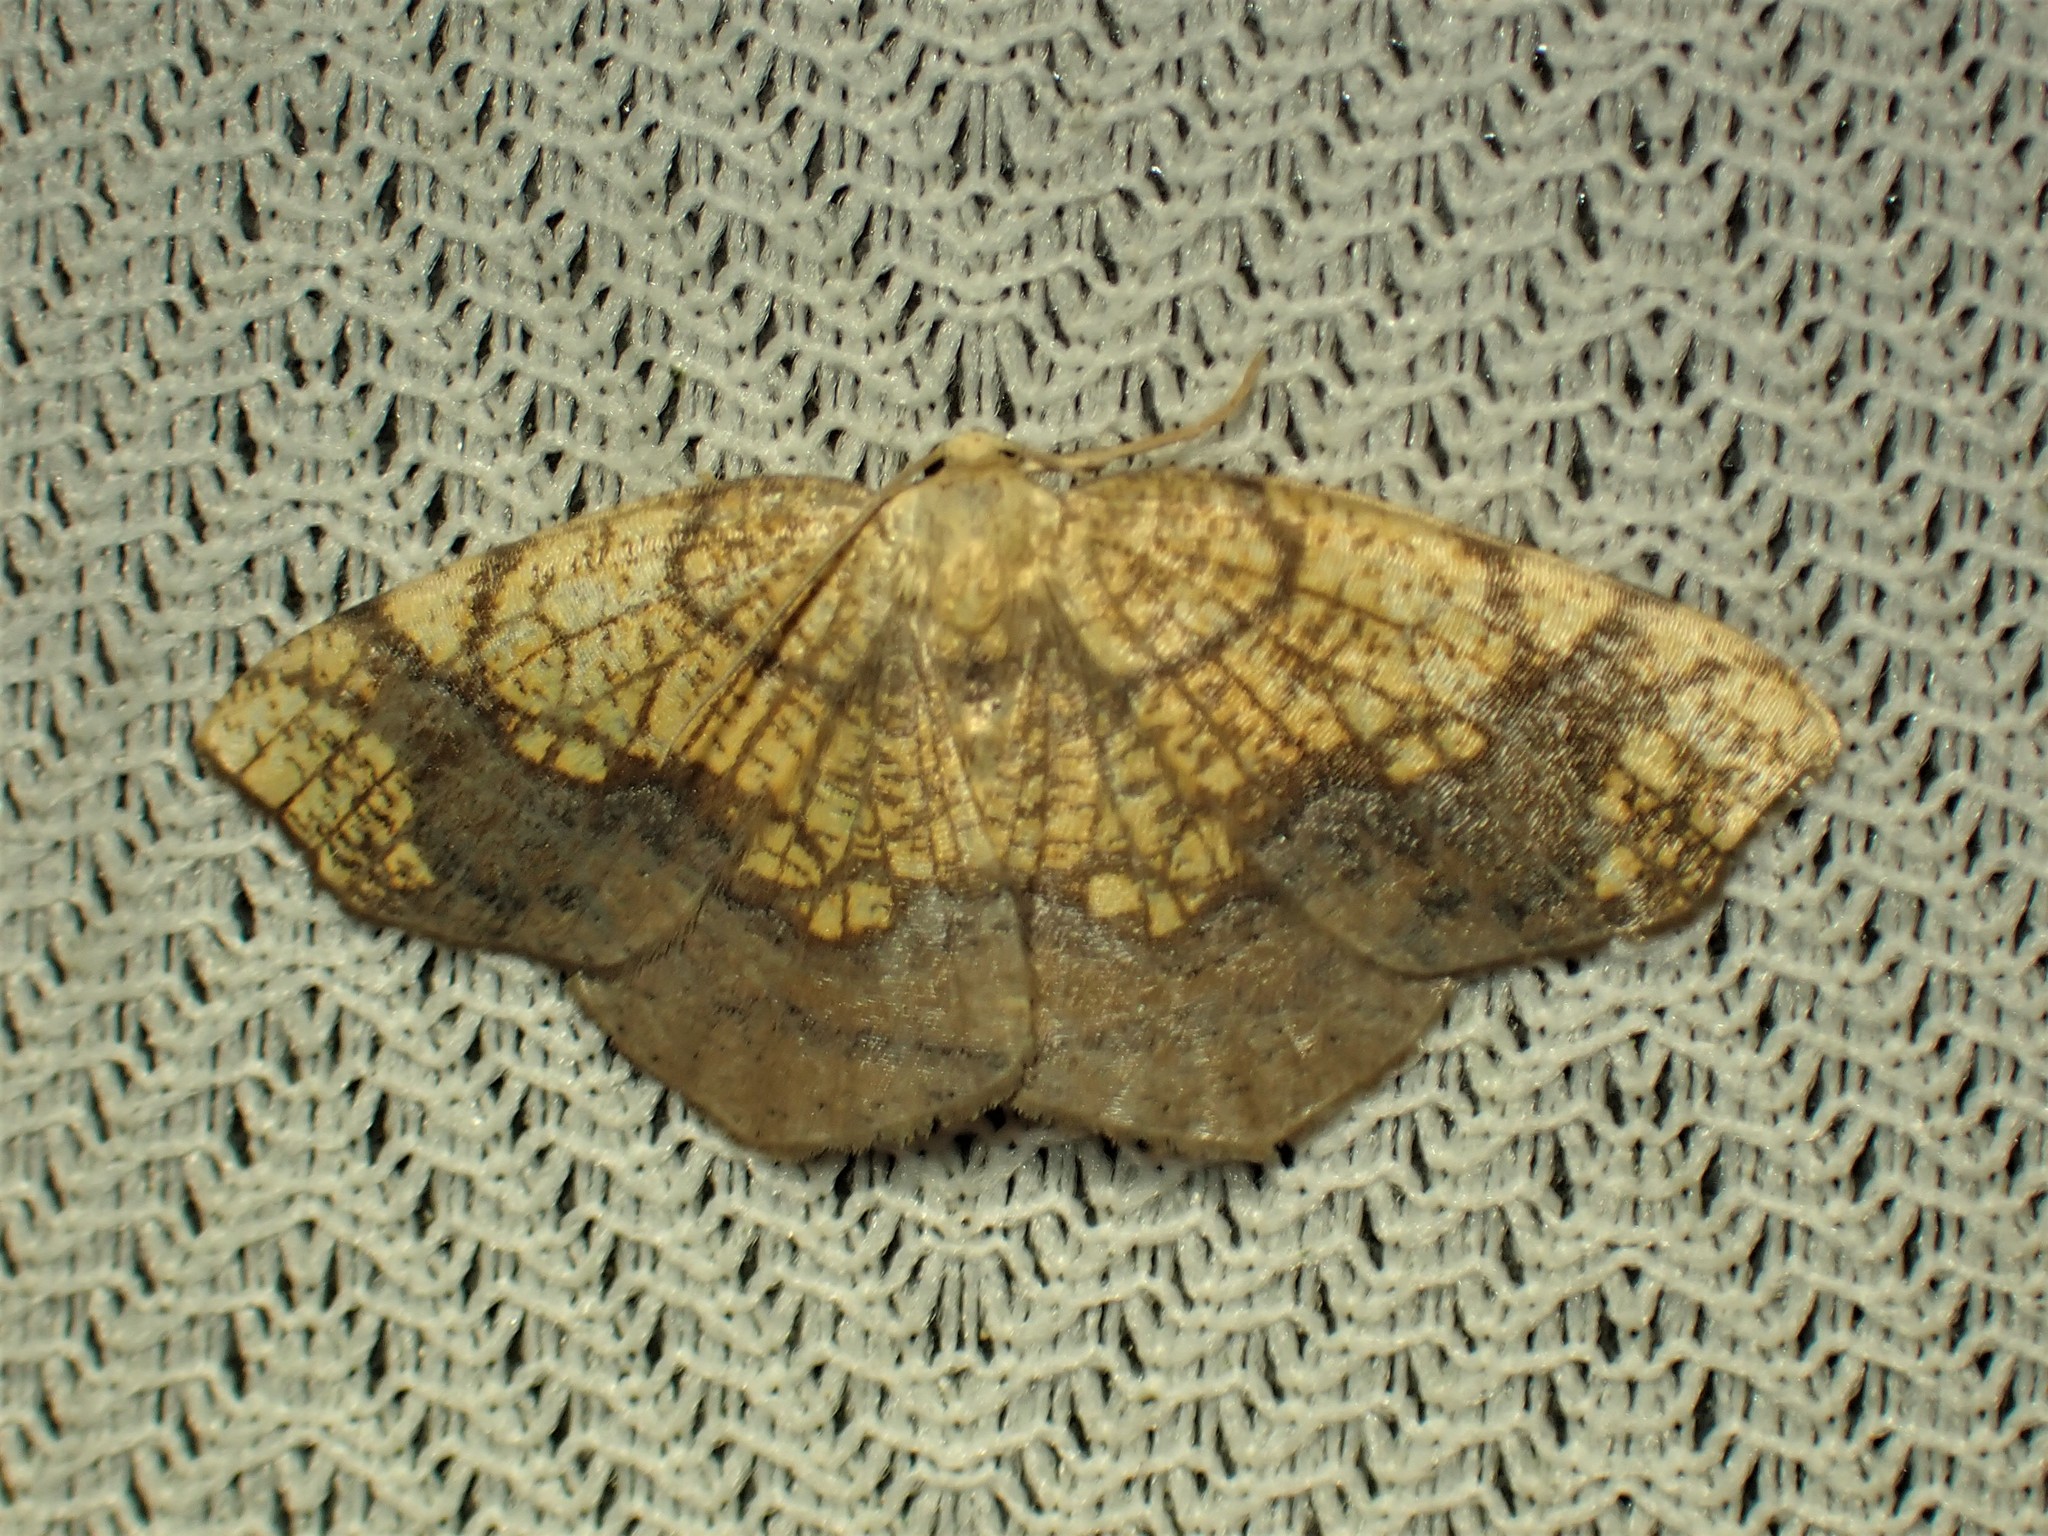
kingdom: Animalia
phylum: Arthropoda
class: Insecta
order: Lepidoptera
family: Geometridae
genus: Nematocampa
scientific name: Nematocampa resistaria
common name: Horned spanworm moth
